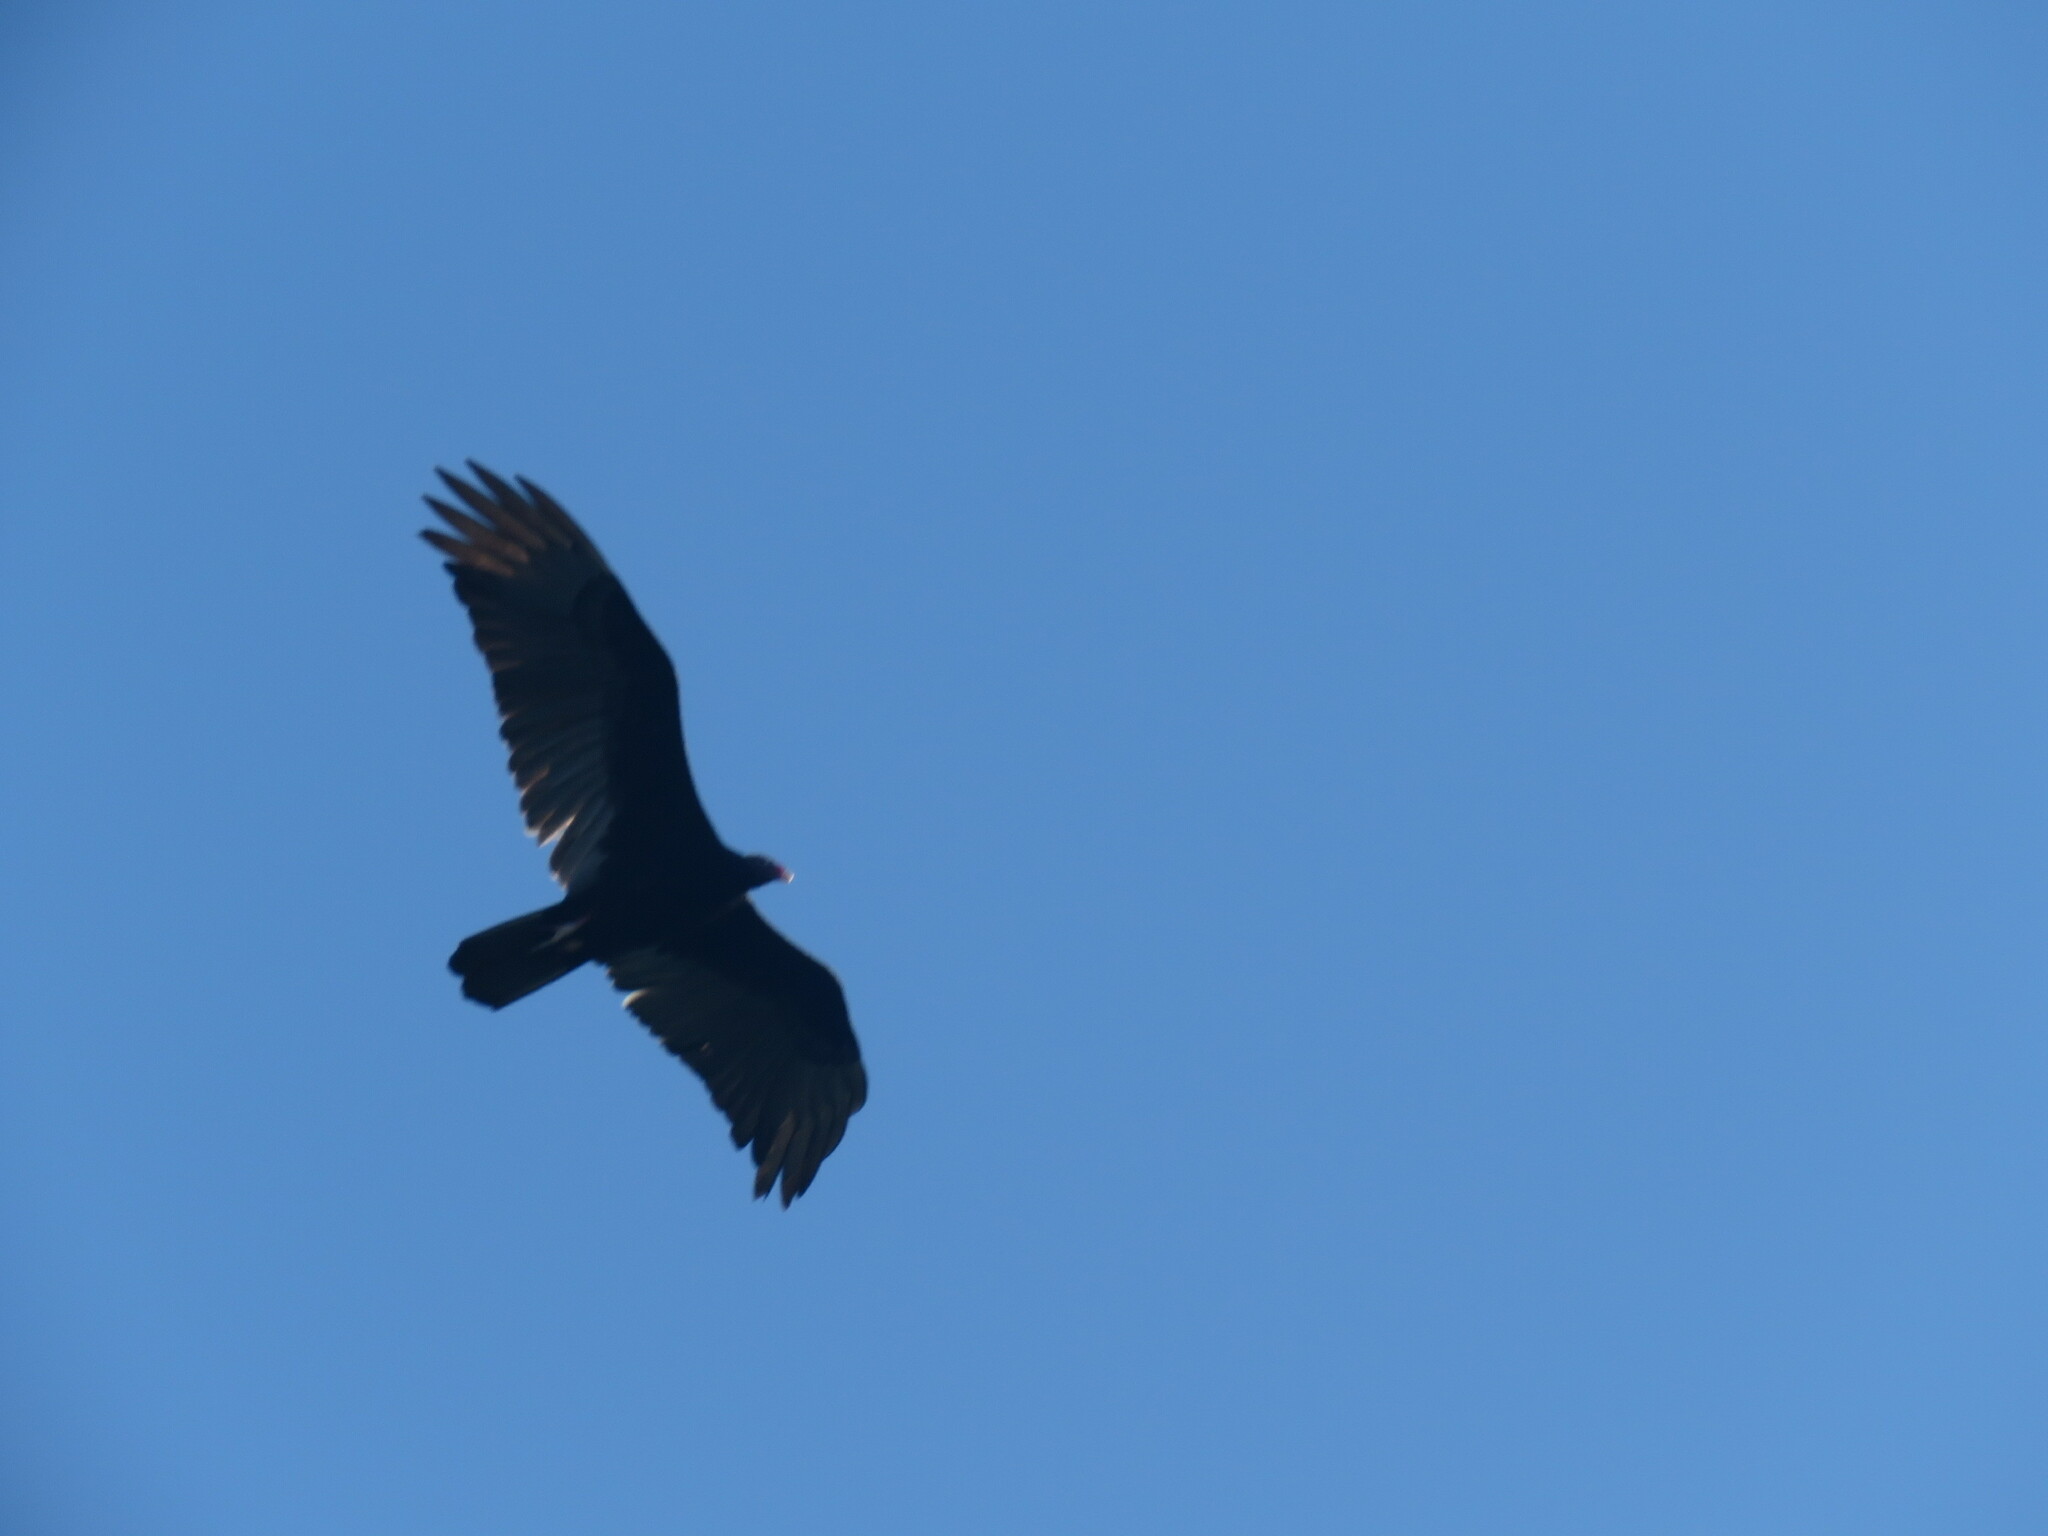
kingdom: Animalia
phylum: Chordata
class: Aves
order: Accipitriformes
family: Cathartidae
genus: Cathartes
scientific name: Cathartes aura
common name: Turkey vulture
